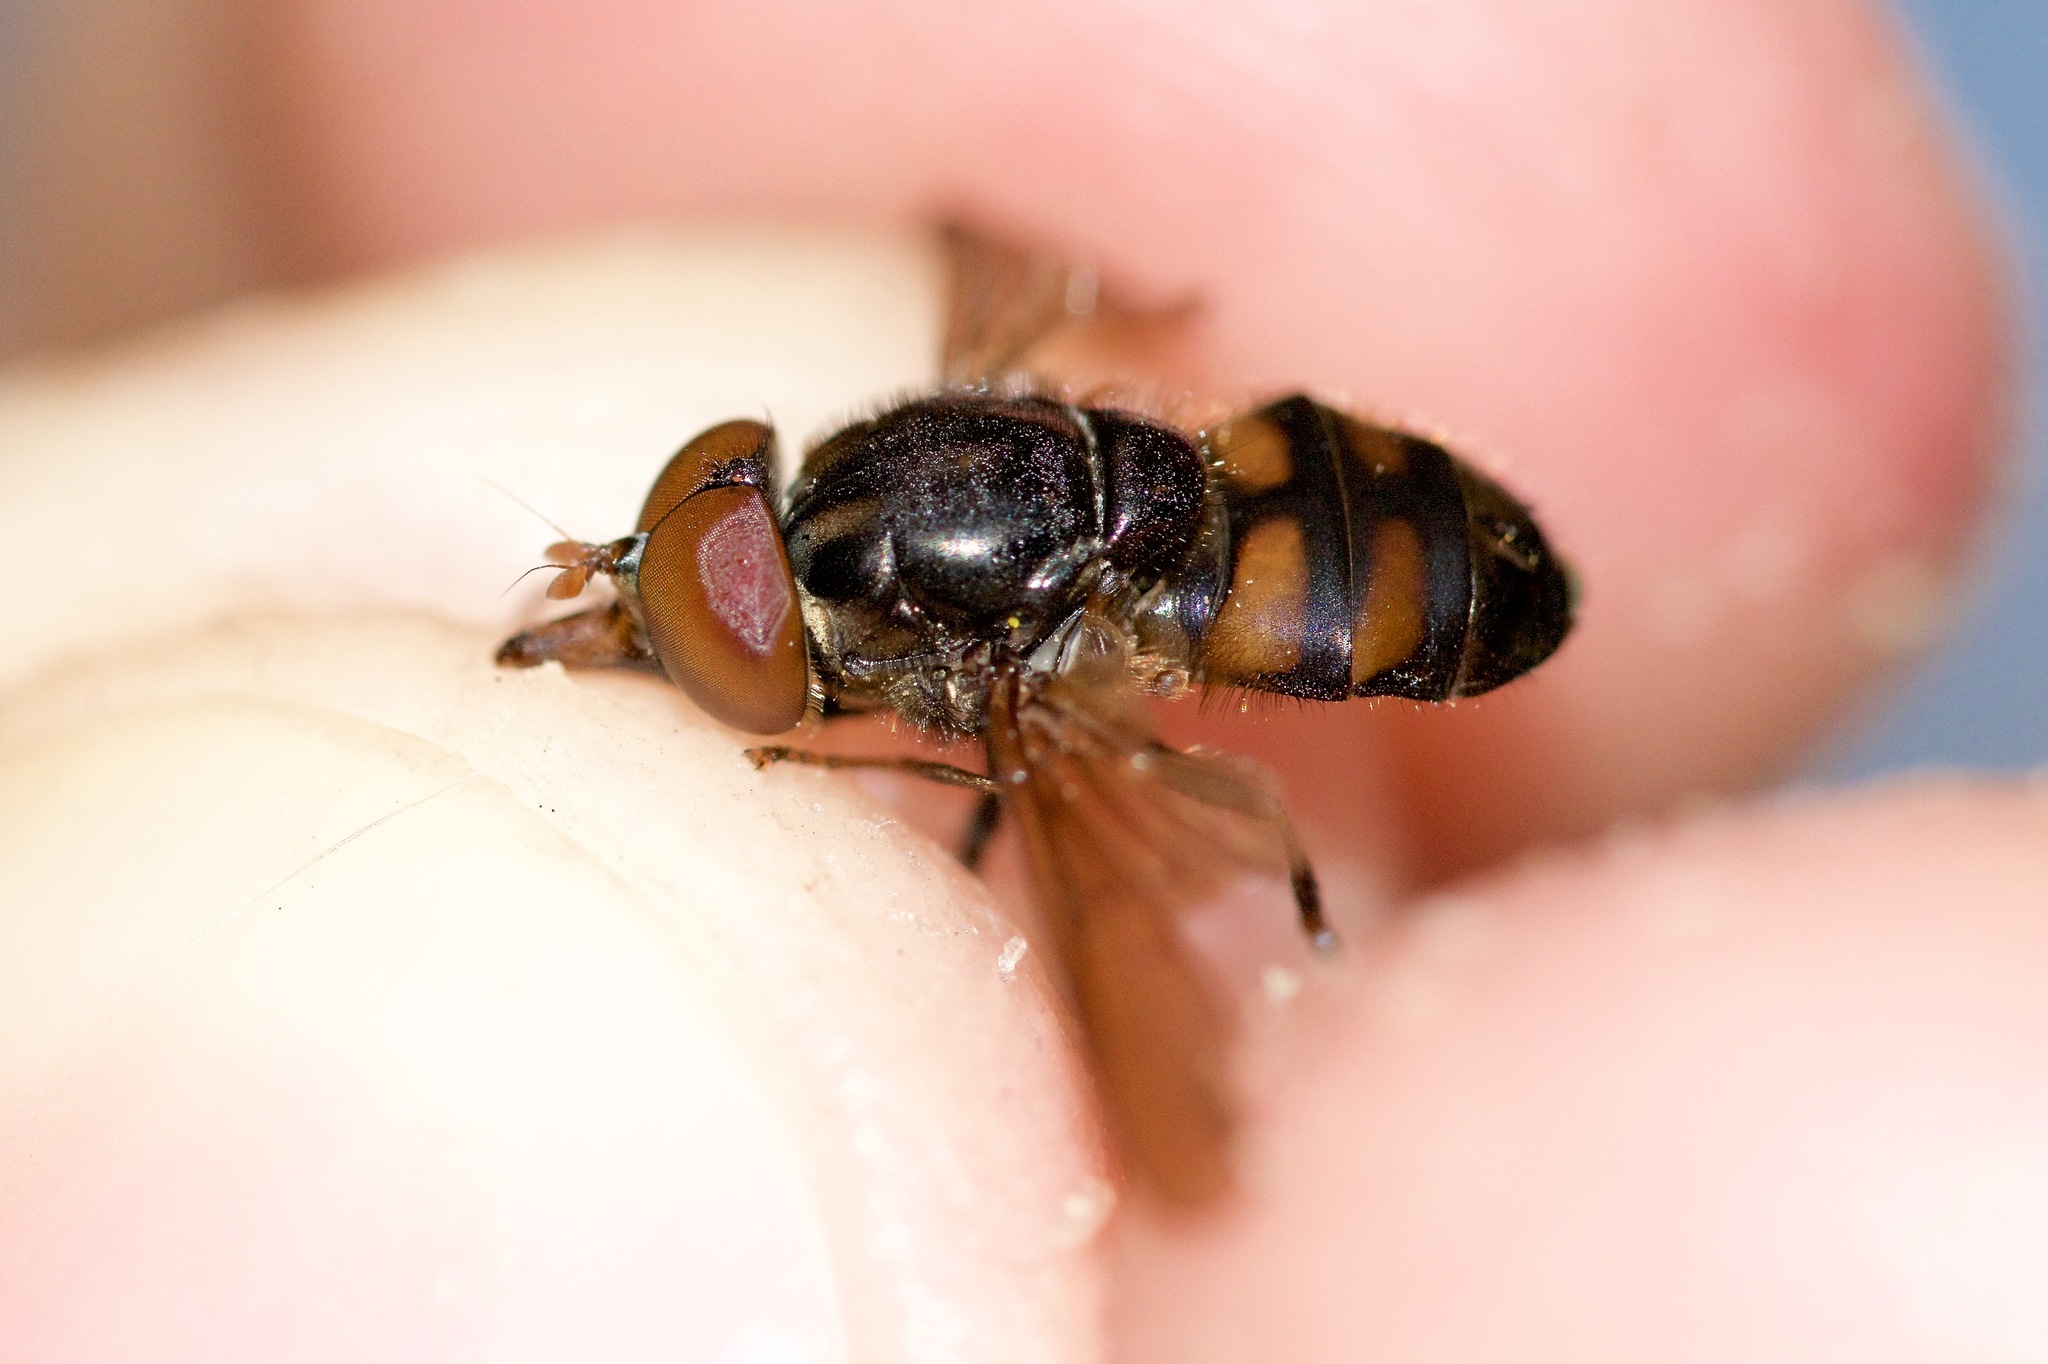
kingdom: Animalia
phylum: Arthropoda
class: Insecta
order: Diptera
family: Syrphidae
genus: Rhingia
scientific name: Rhingia nasica
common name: American snout fly
